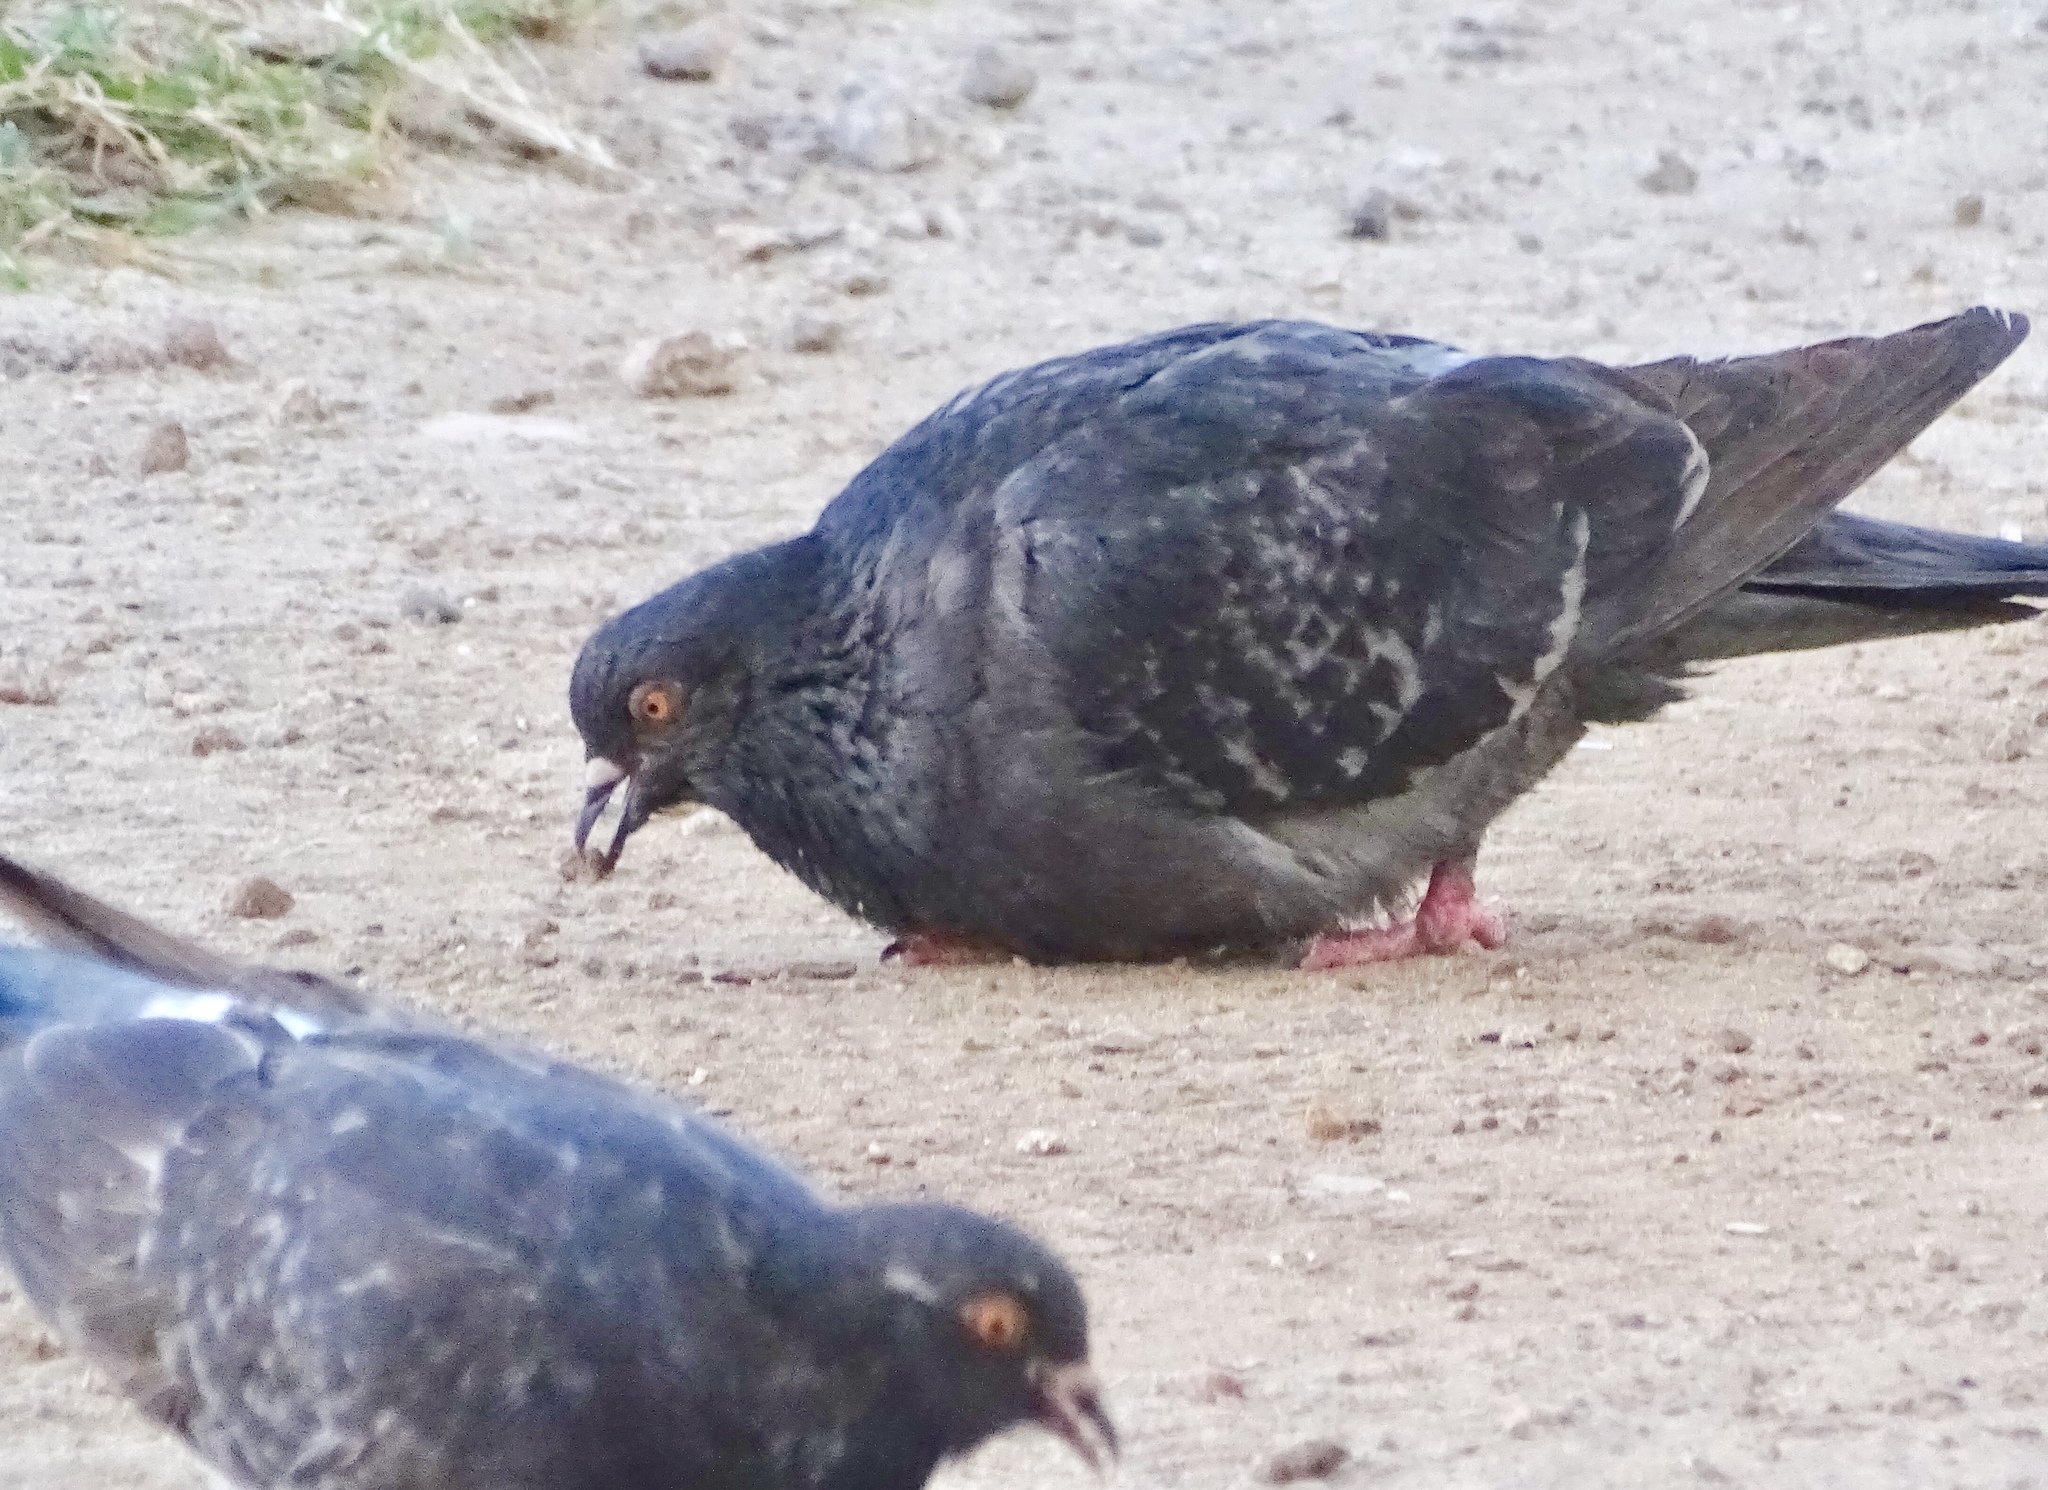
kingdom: Animalia
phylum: Chordata
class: Aves
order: Columbiformes
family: Columbidae
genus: Columba
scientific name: Columba livia
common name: Rock pigeon
